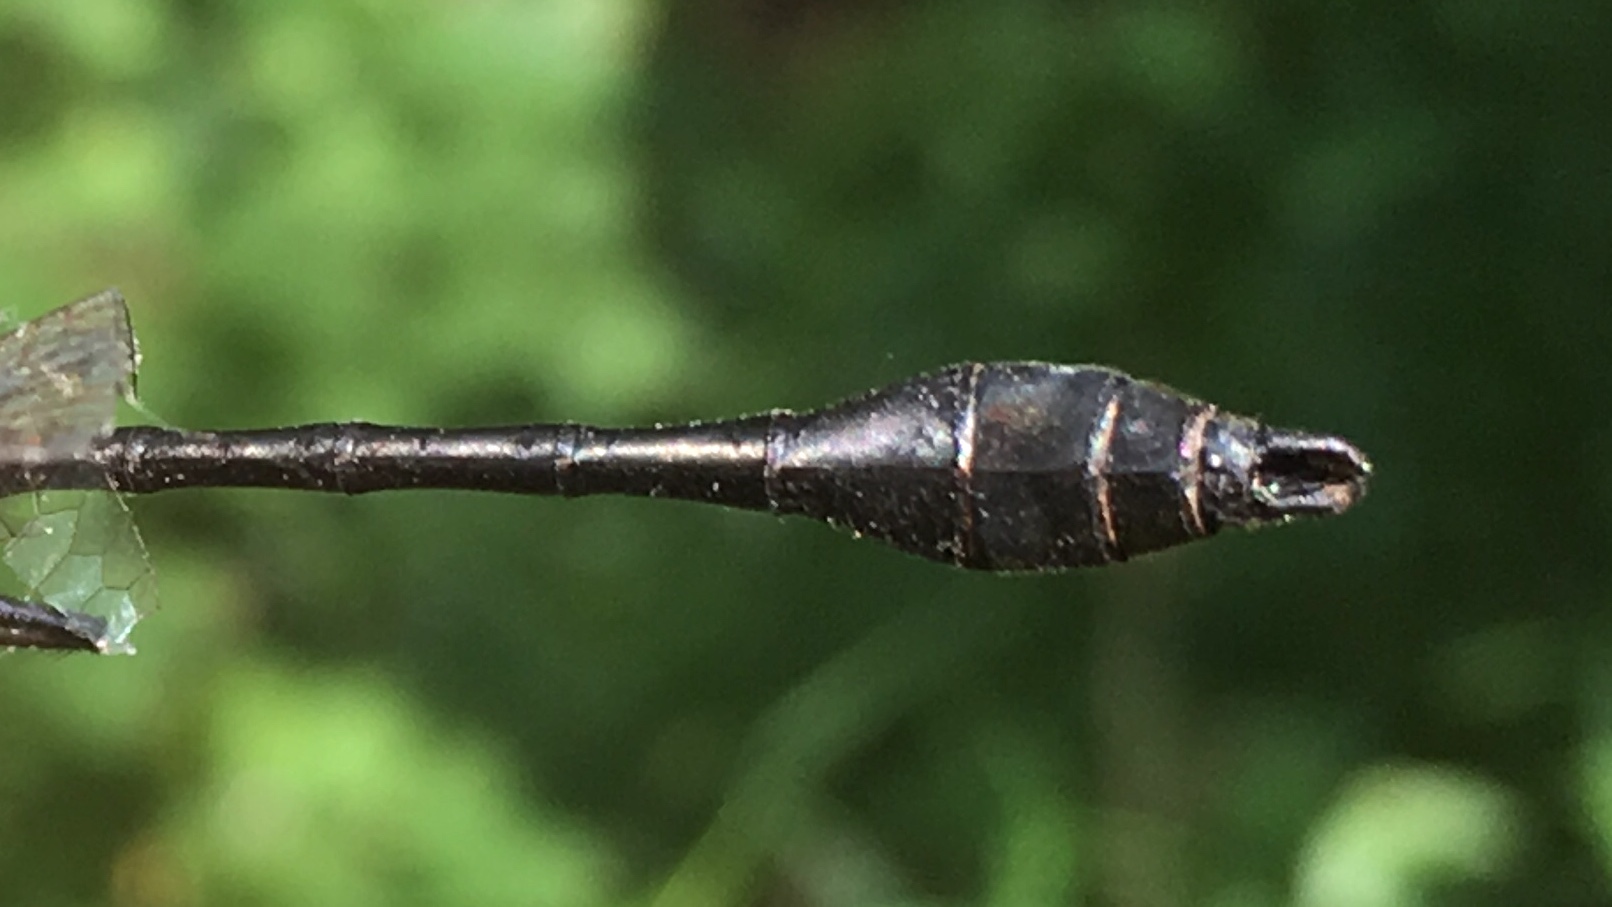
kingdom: Animalia
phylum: Arthropoda
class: Insecta
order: Odonata
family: Corduliidae
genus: Dorocordulia
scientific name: Dorocordulia libera
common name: Racket-tailed emerald
